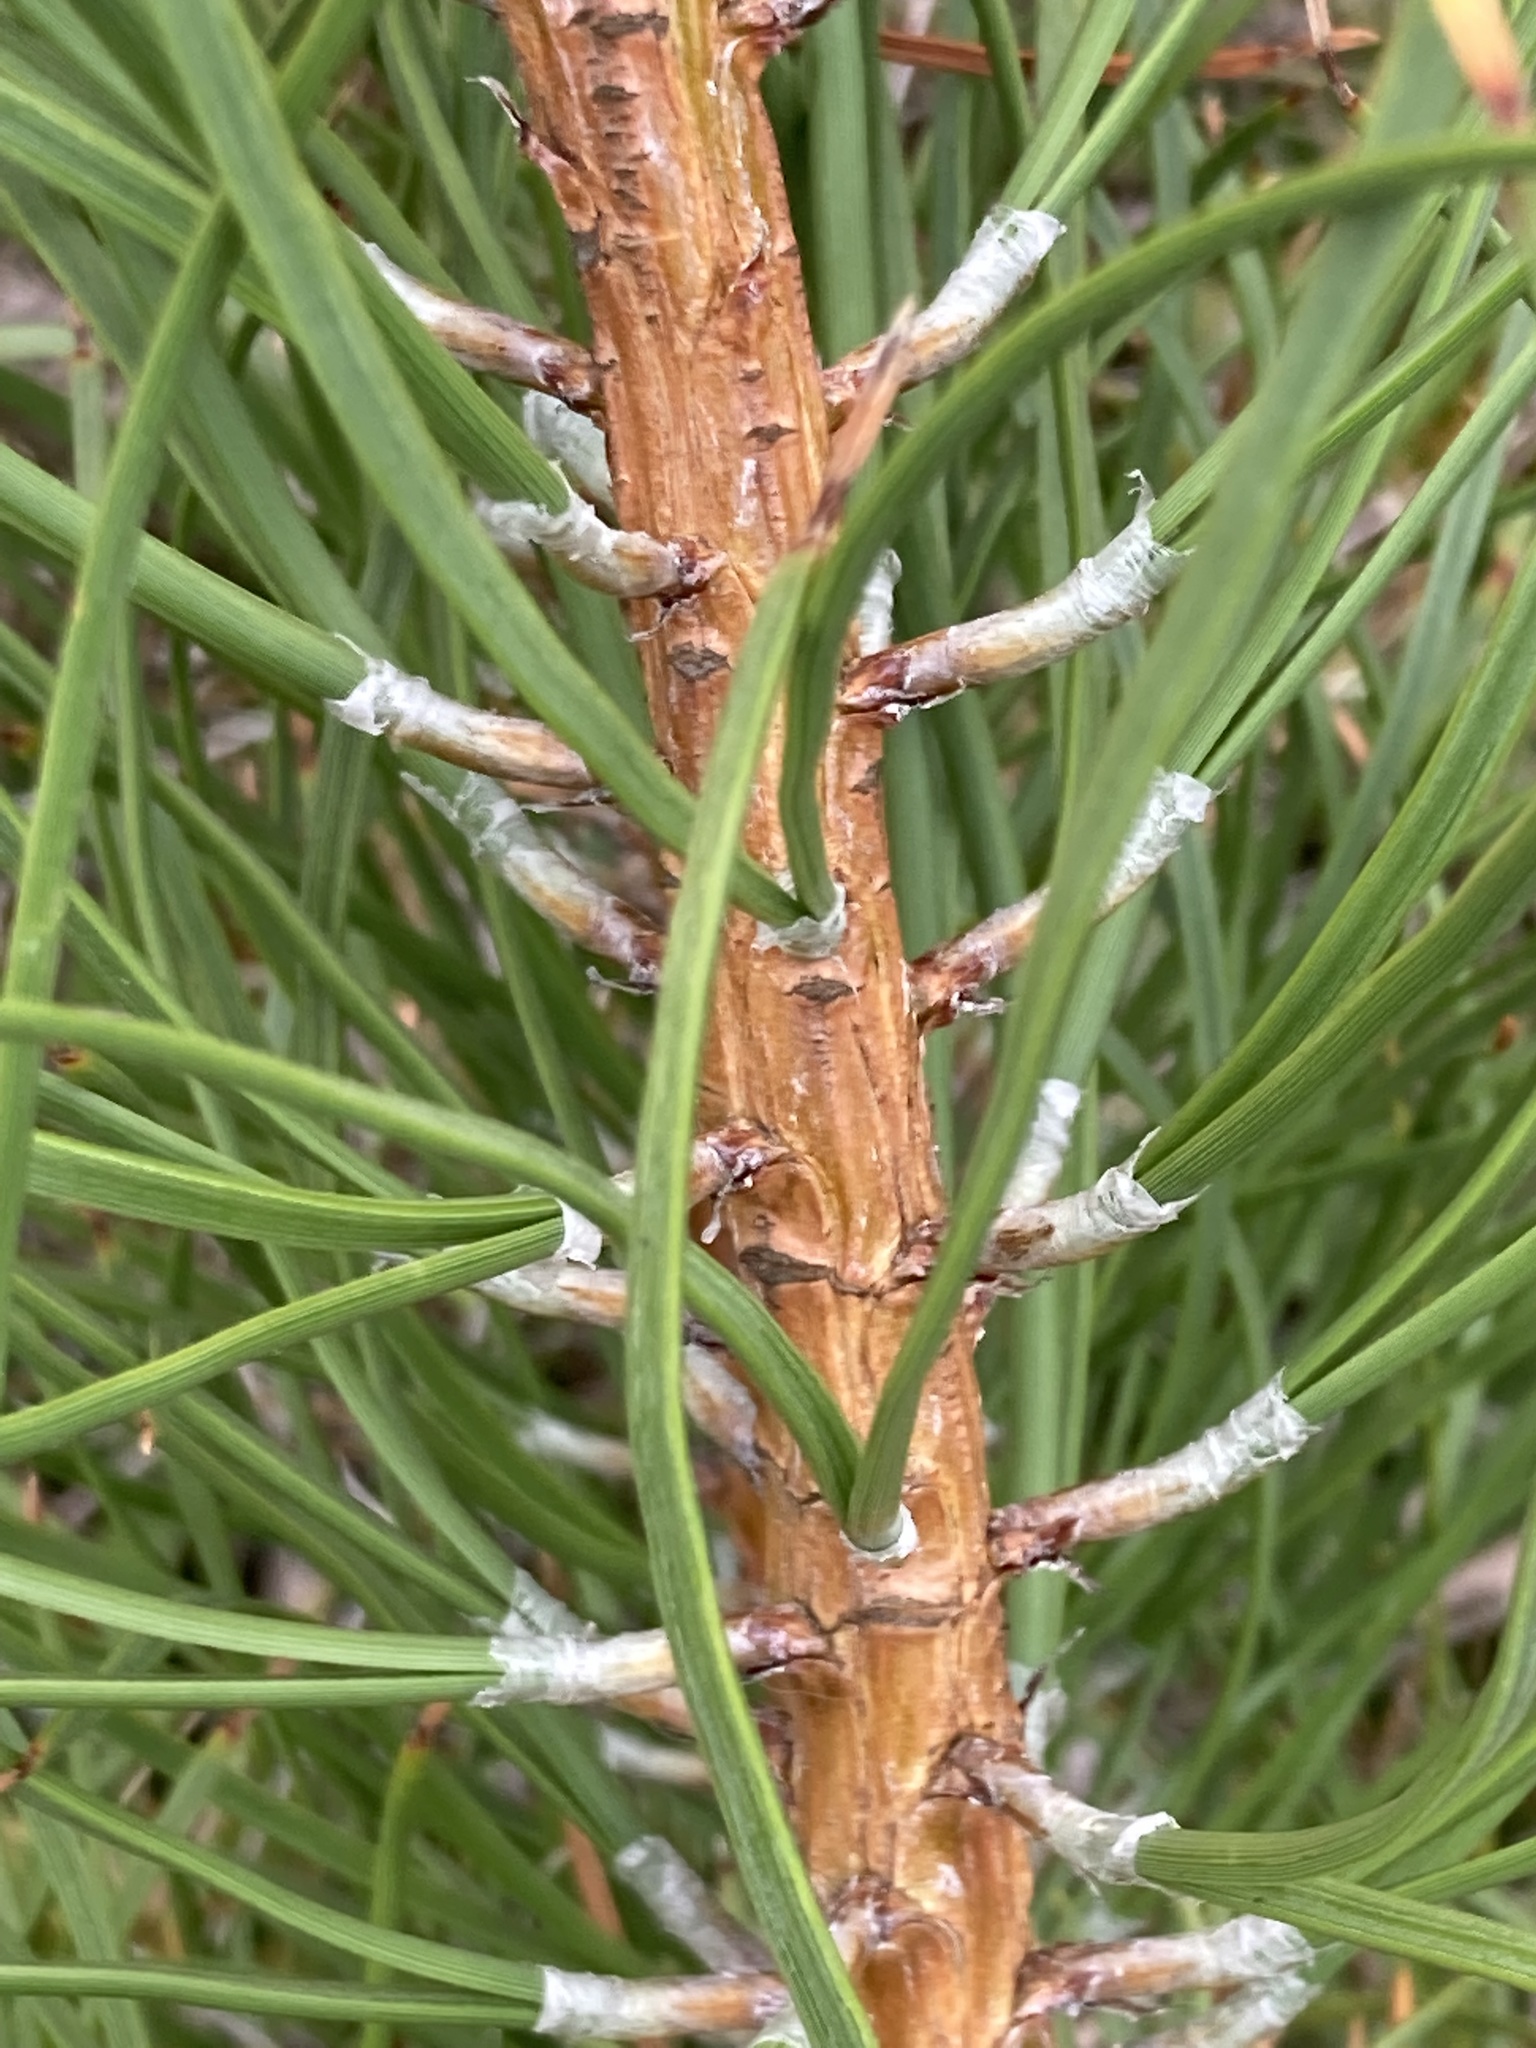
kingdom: Plantae
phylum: Tracheophyta
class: Pinopsida
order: Pinales
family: Pinaceae
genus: Pinus
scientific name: Pinus nigra
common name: Austrian pine
